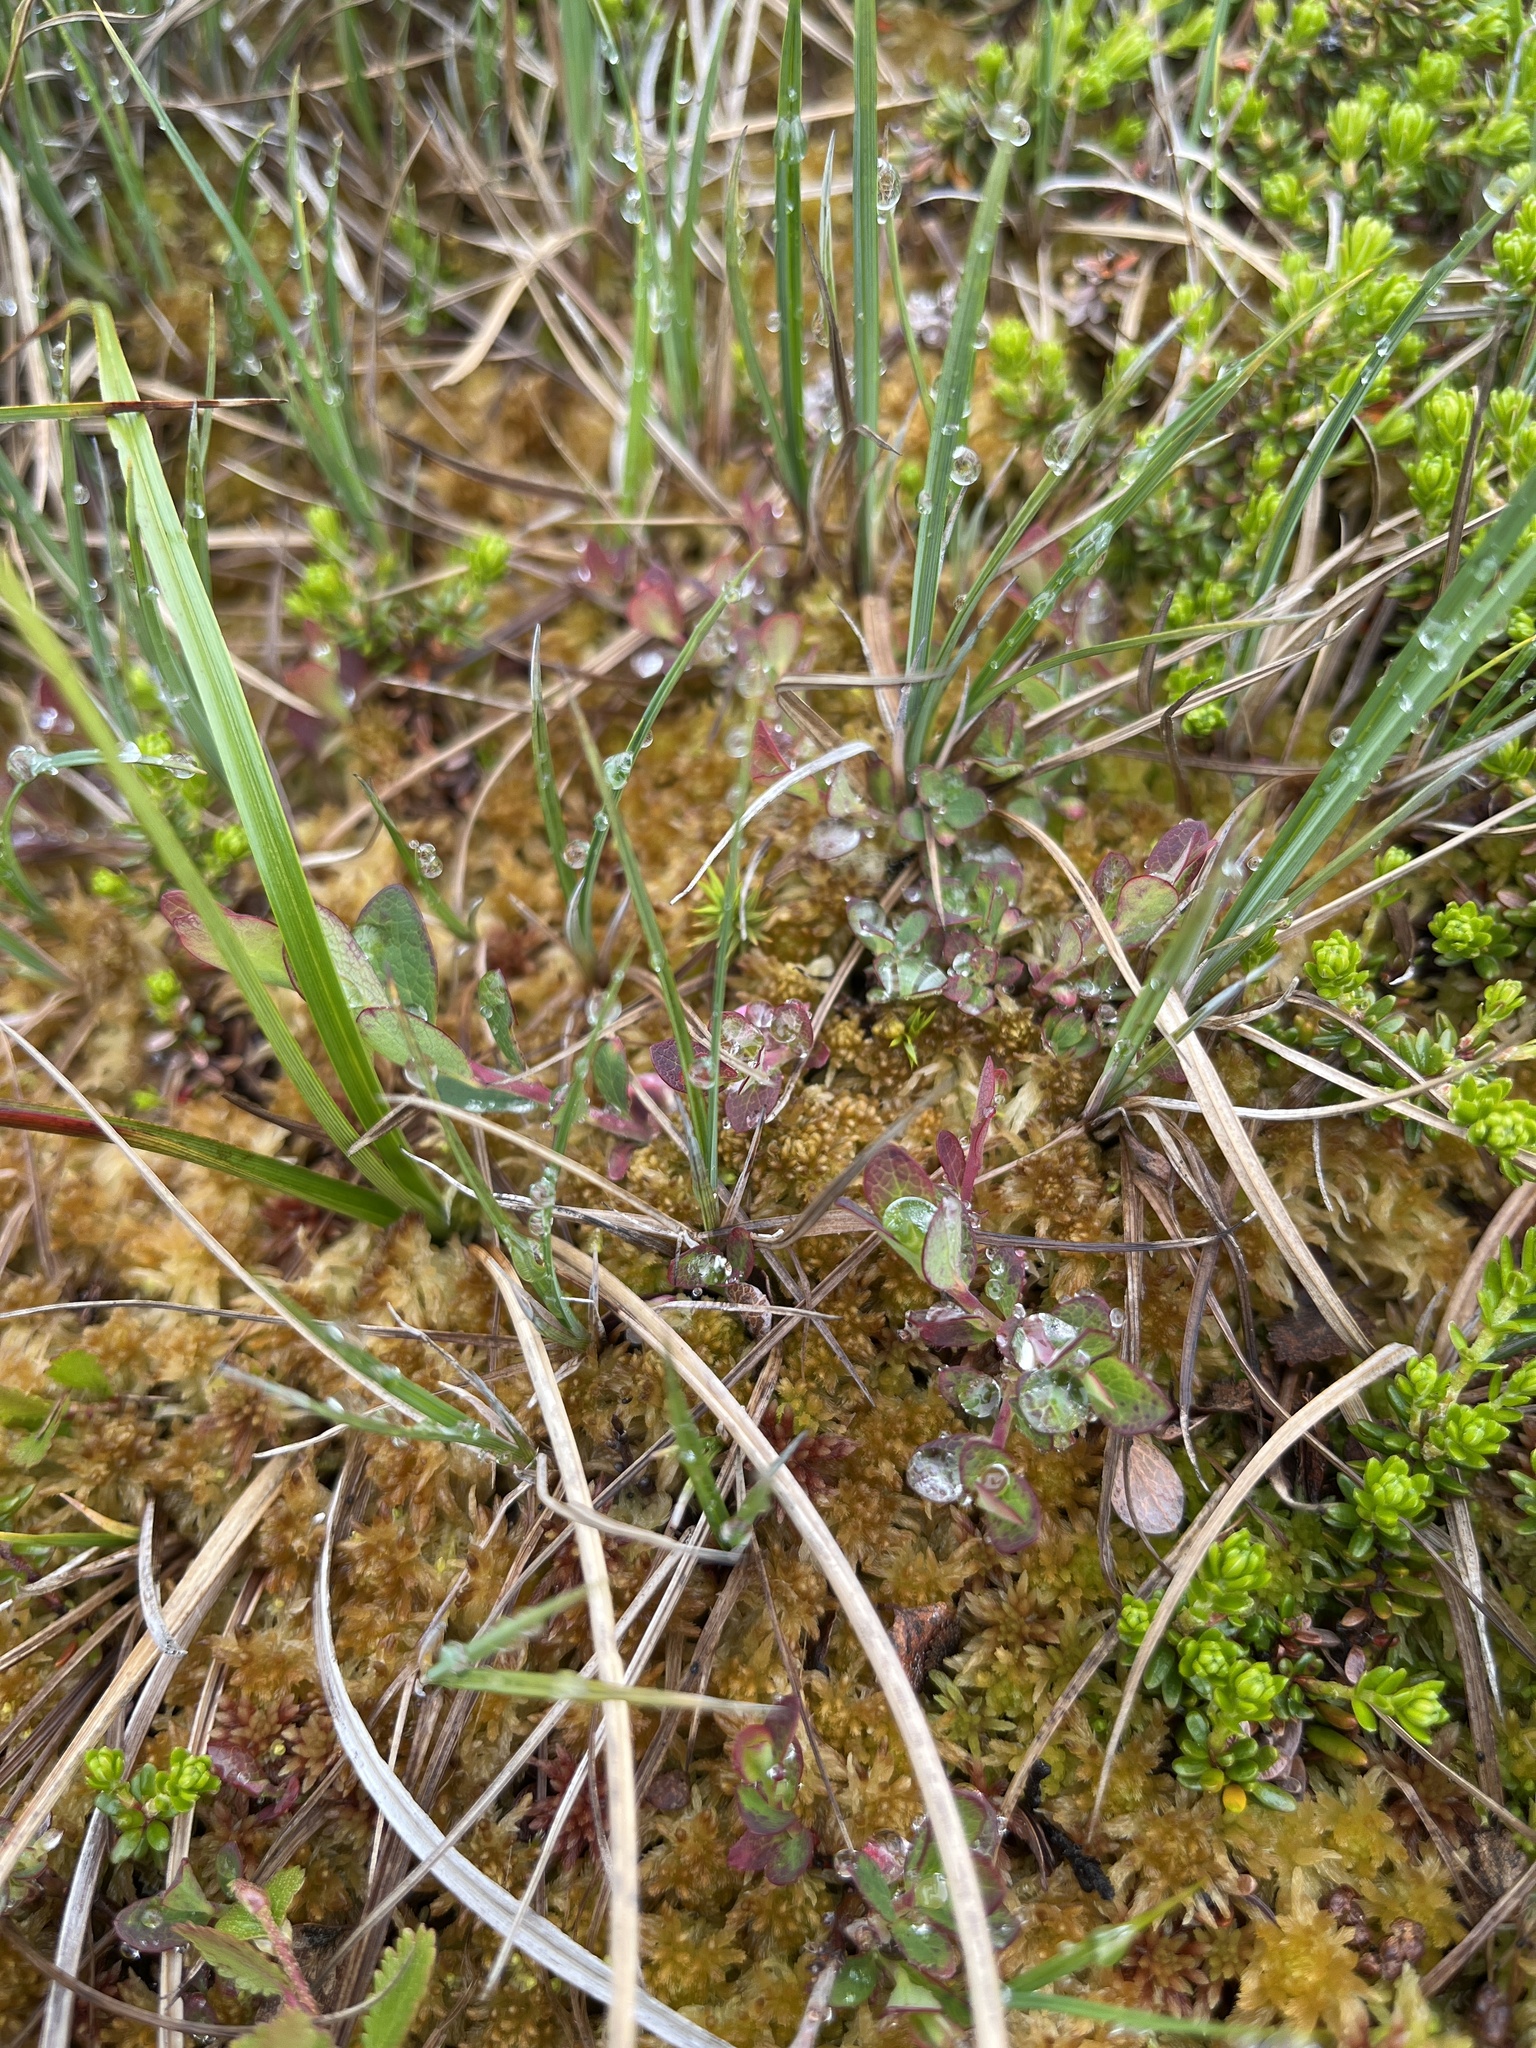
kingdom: Plantae
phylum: Tracheophyta
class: Magnoliopsida
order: Ericales
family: Ericaceae
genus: Vaccinium
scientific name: Vaccinium uliginosum
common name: Bog bilberry
